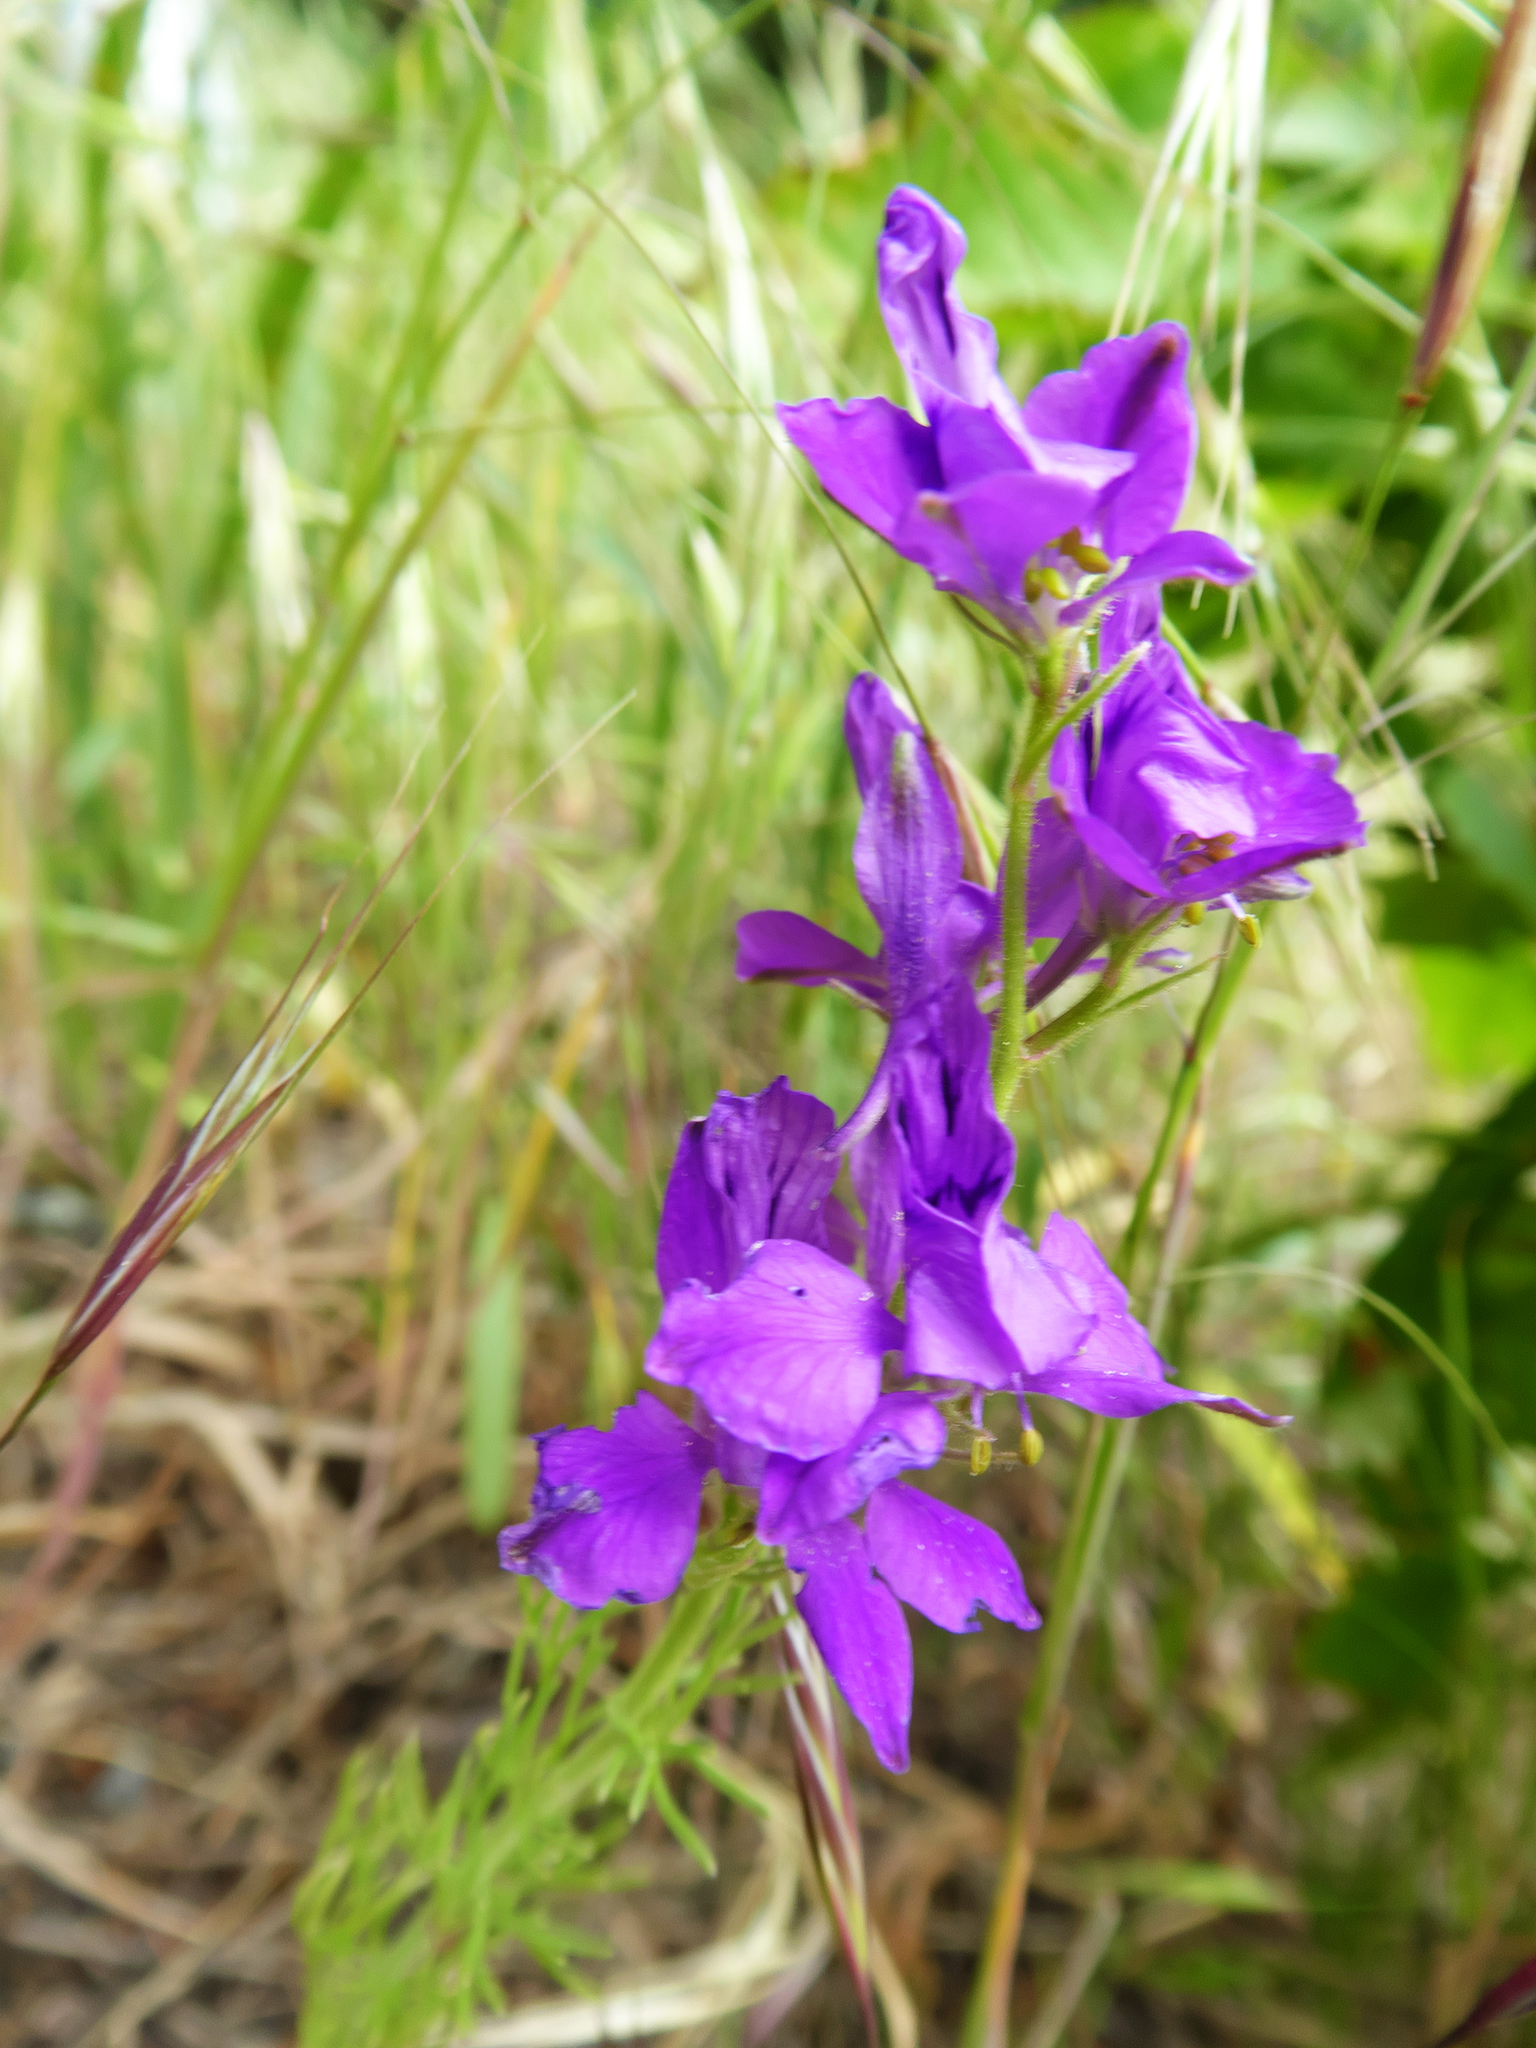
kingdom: Plantae
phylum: Tracheophyta
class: Magnoliopsida
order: Ranunculales
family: Ranunculaceae
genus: Delphinium
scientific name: Delphinium ajacis
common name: Doubtful knight's-spur
